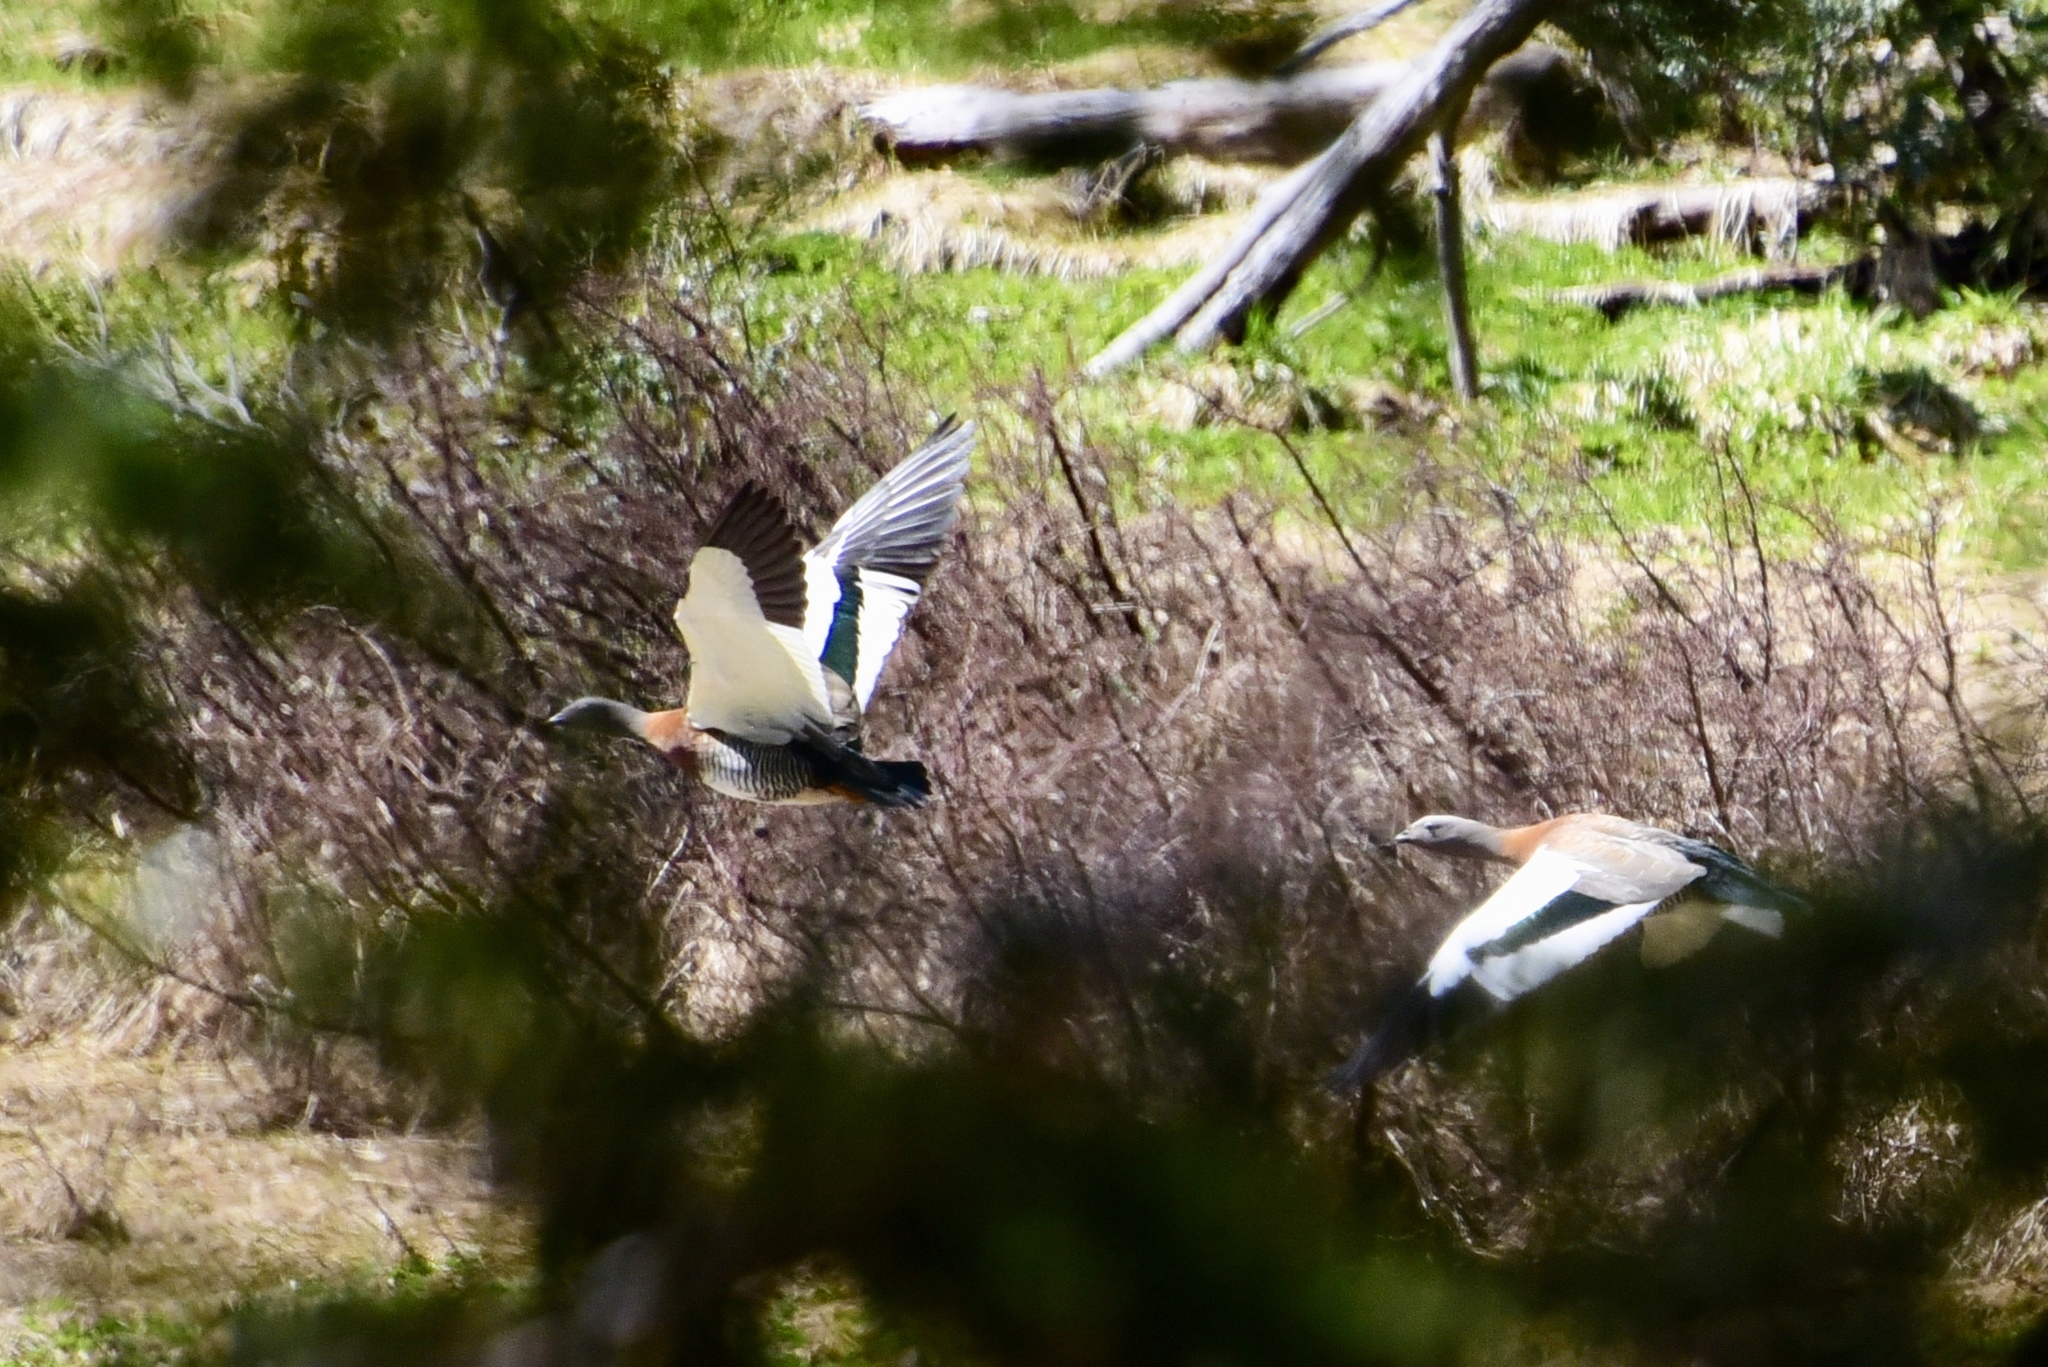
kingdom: Animalia
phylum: Chordata
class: Aves
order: Anseriformes
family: Anatidae
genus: Chloephaga
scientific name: Chloephaga poliocephala
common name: Ashy-headed goose
